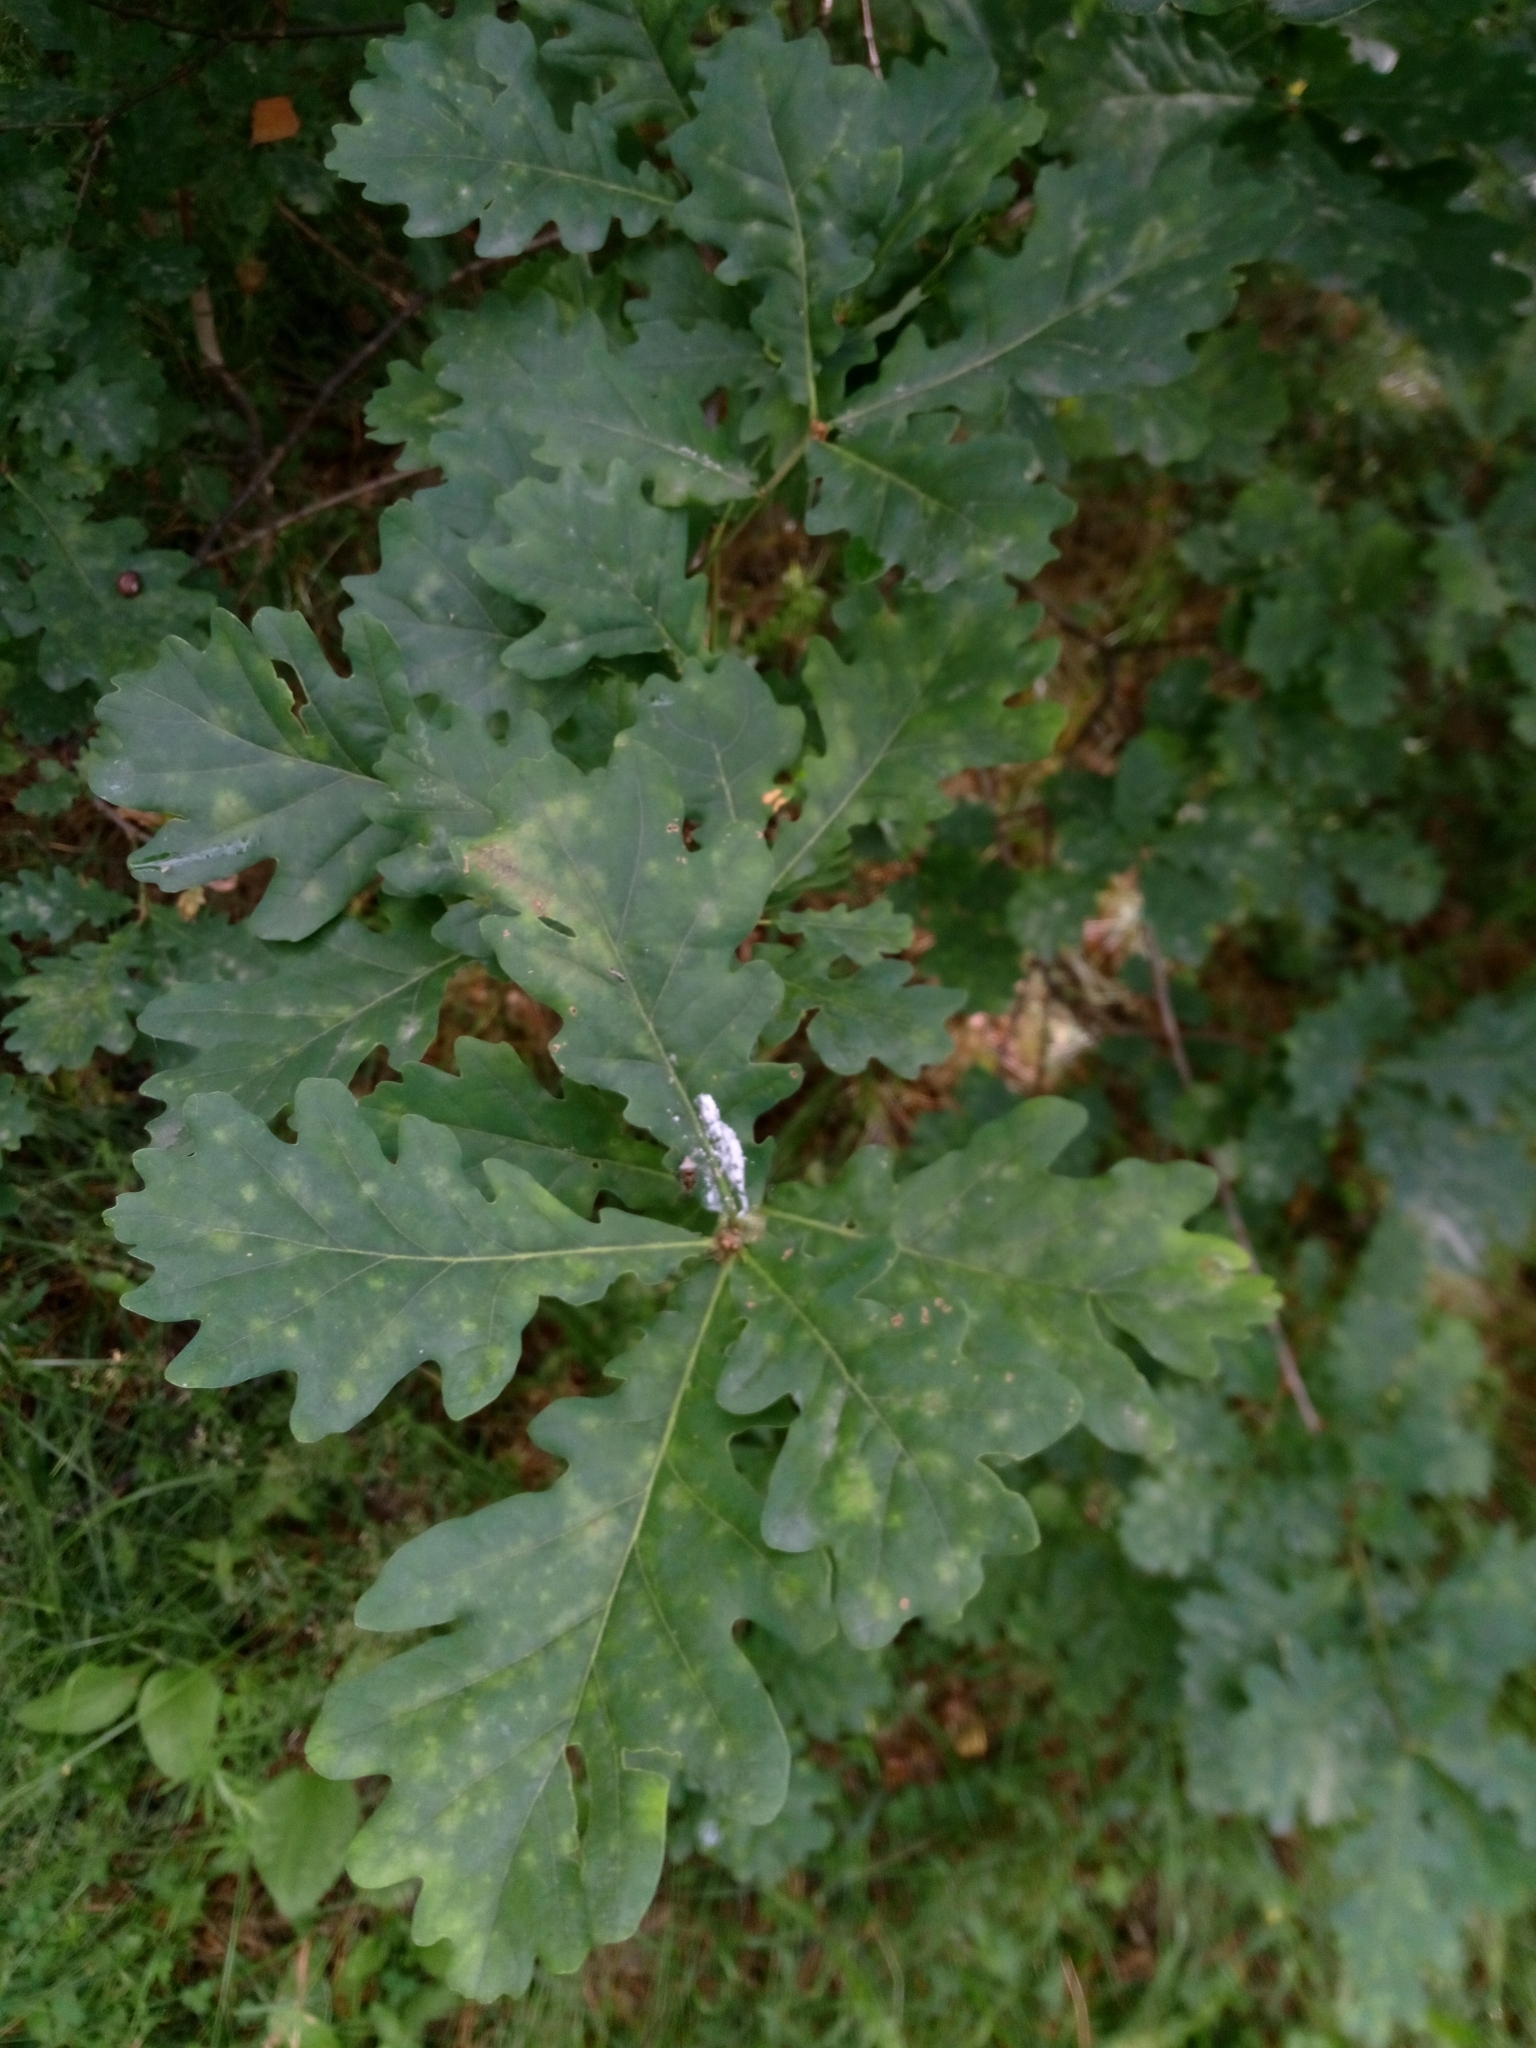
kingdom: Plantae
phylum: Tracheophyta
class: Magnoliopsida
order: Fagales
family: Fagaceae
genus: Quercus
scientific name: Quercus robur
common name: Pedunculate oak
